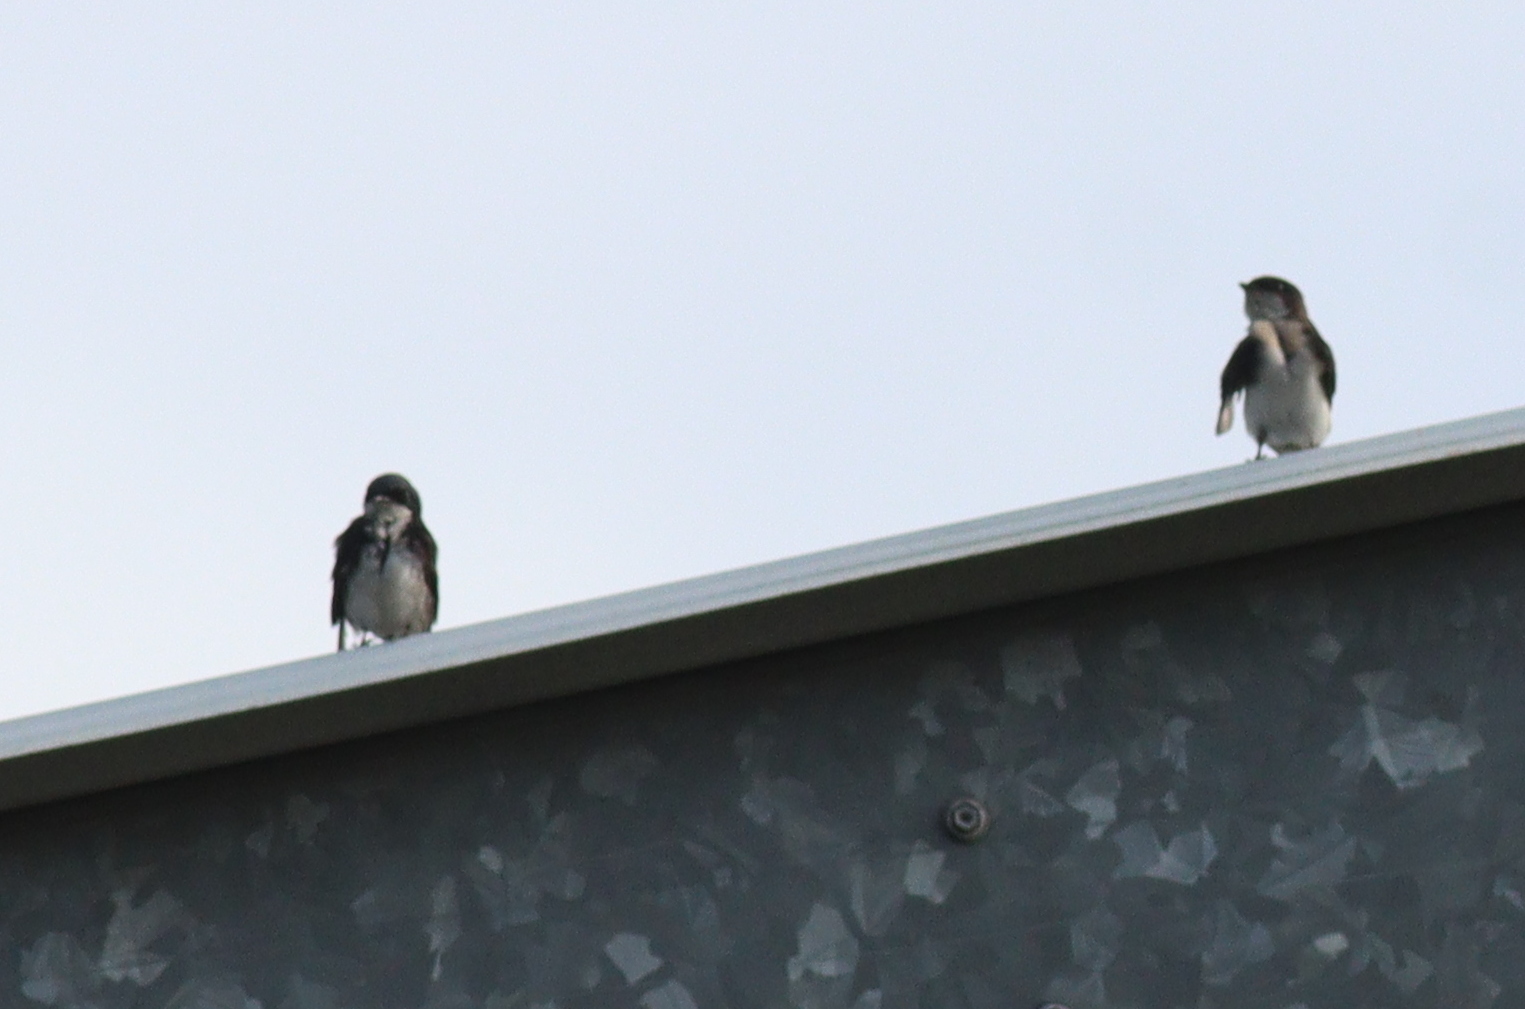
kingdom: Animalia
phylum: Chordata
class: Aves
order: Passeriformes
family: Hirundinidae
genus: Notiochelidon
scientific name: Notiochelidon cyanoleuca
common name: Blue-and-white swallow
